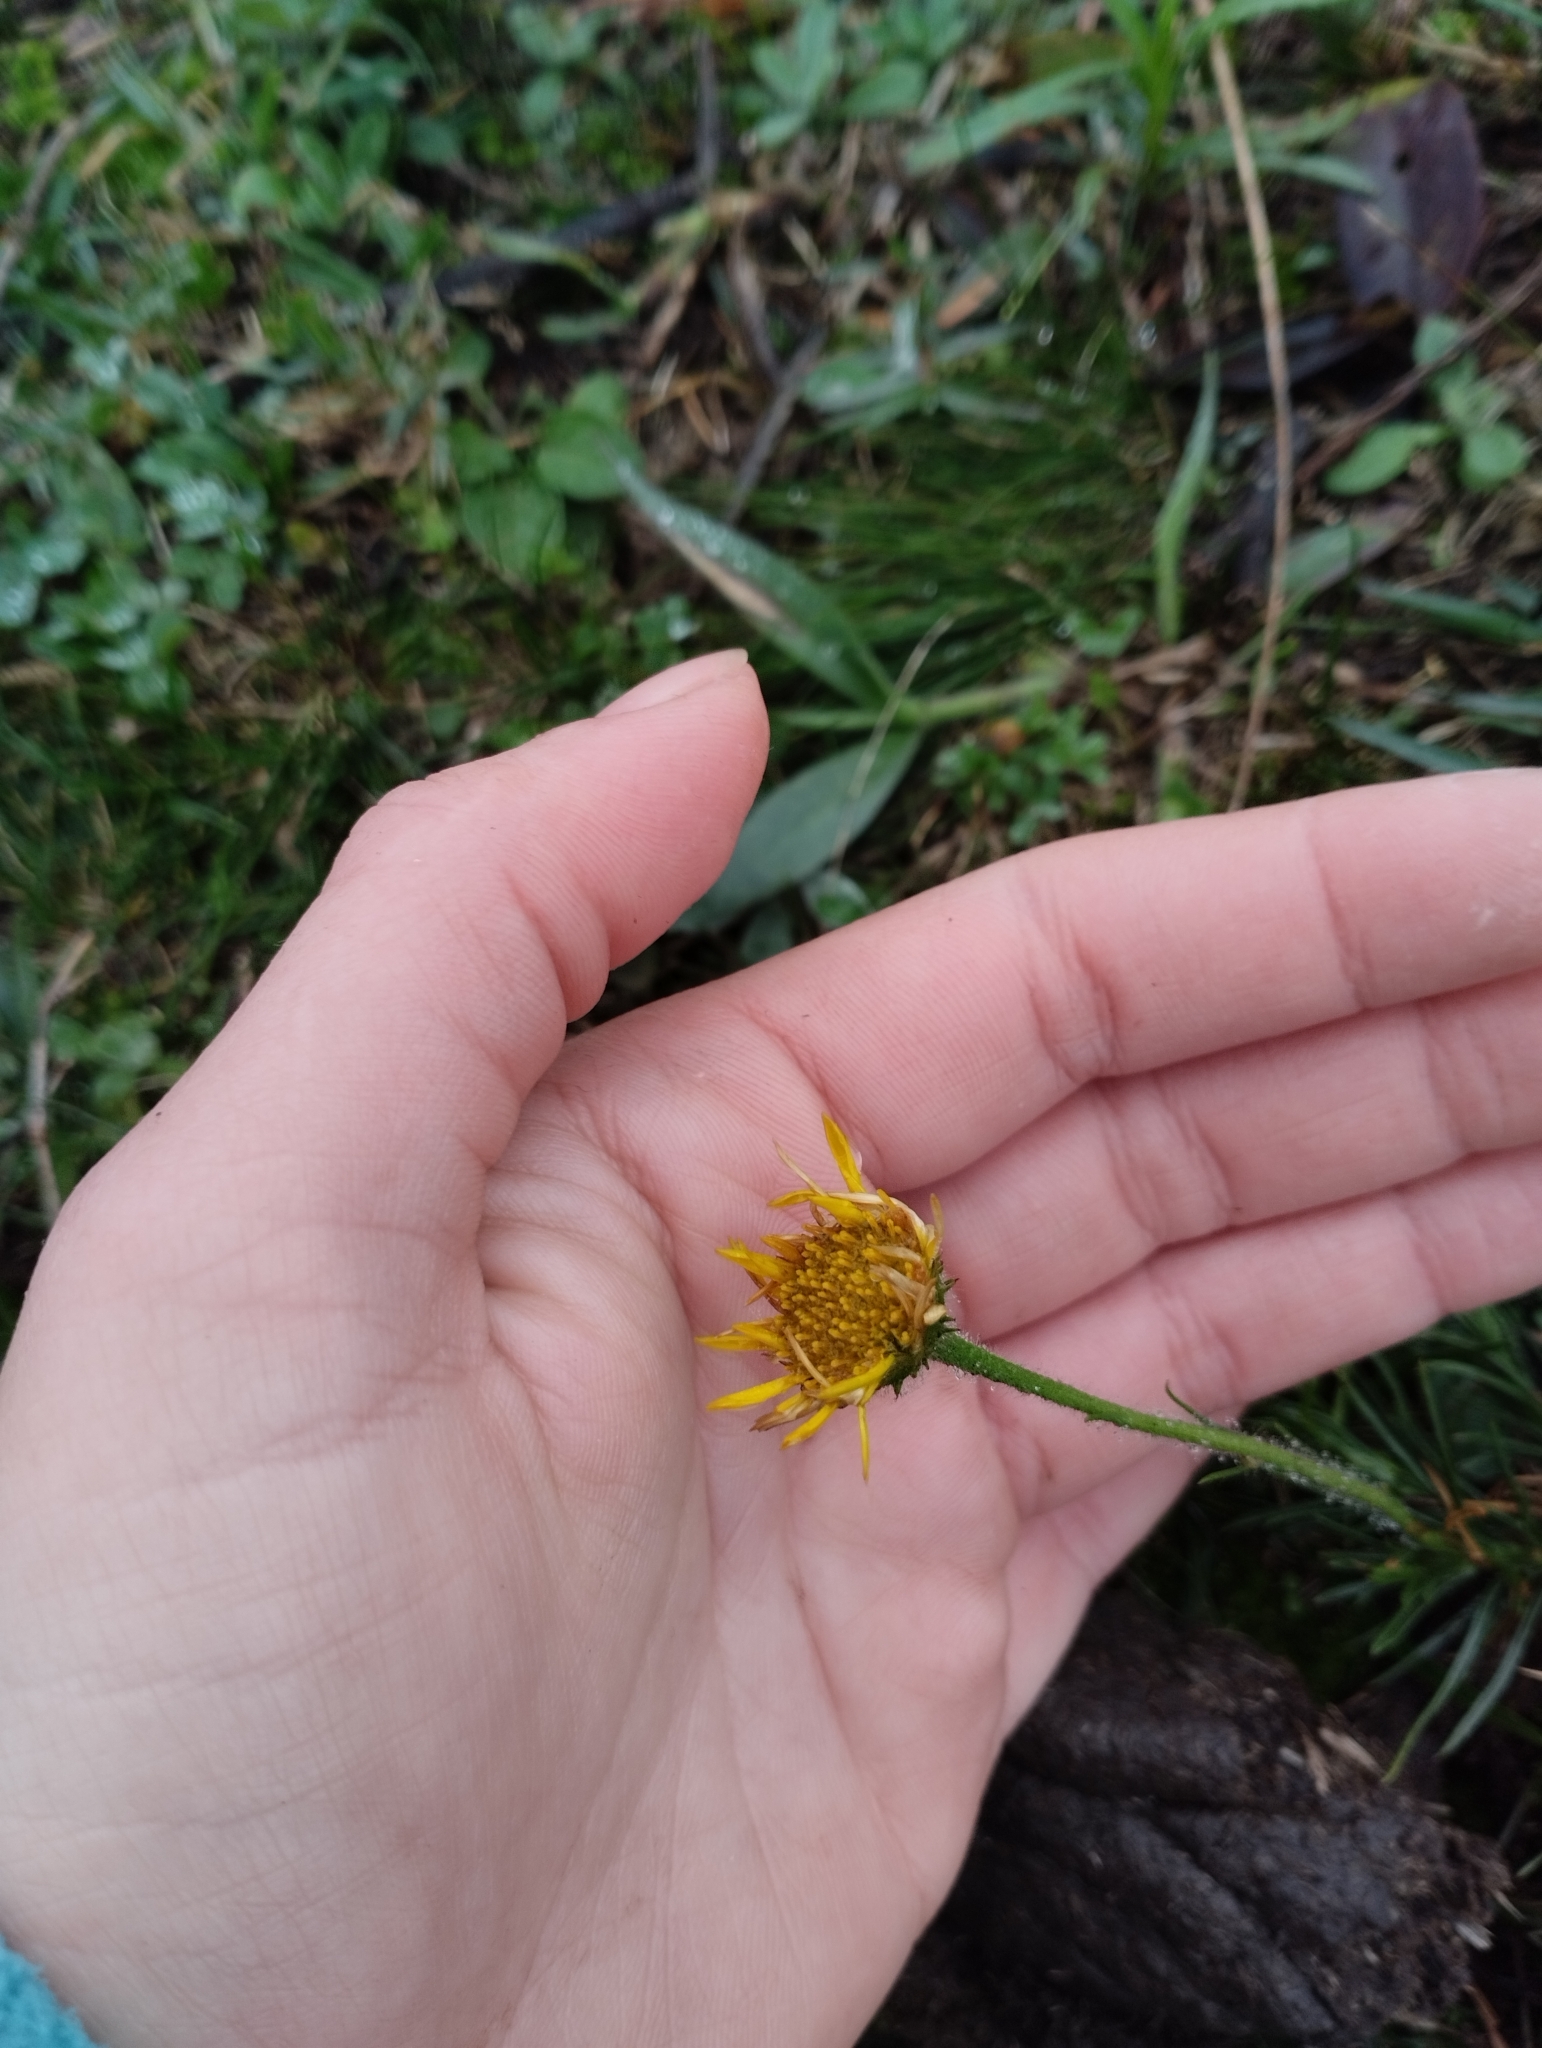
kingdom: Plantae
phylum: Tracheophyta
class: Magnoliopsida
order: Asterales
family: Asteraceae
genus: Neja
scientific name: Neja pinifolia
